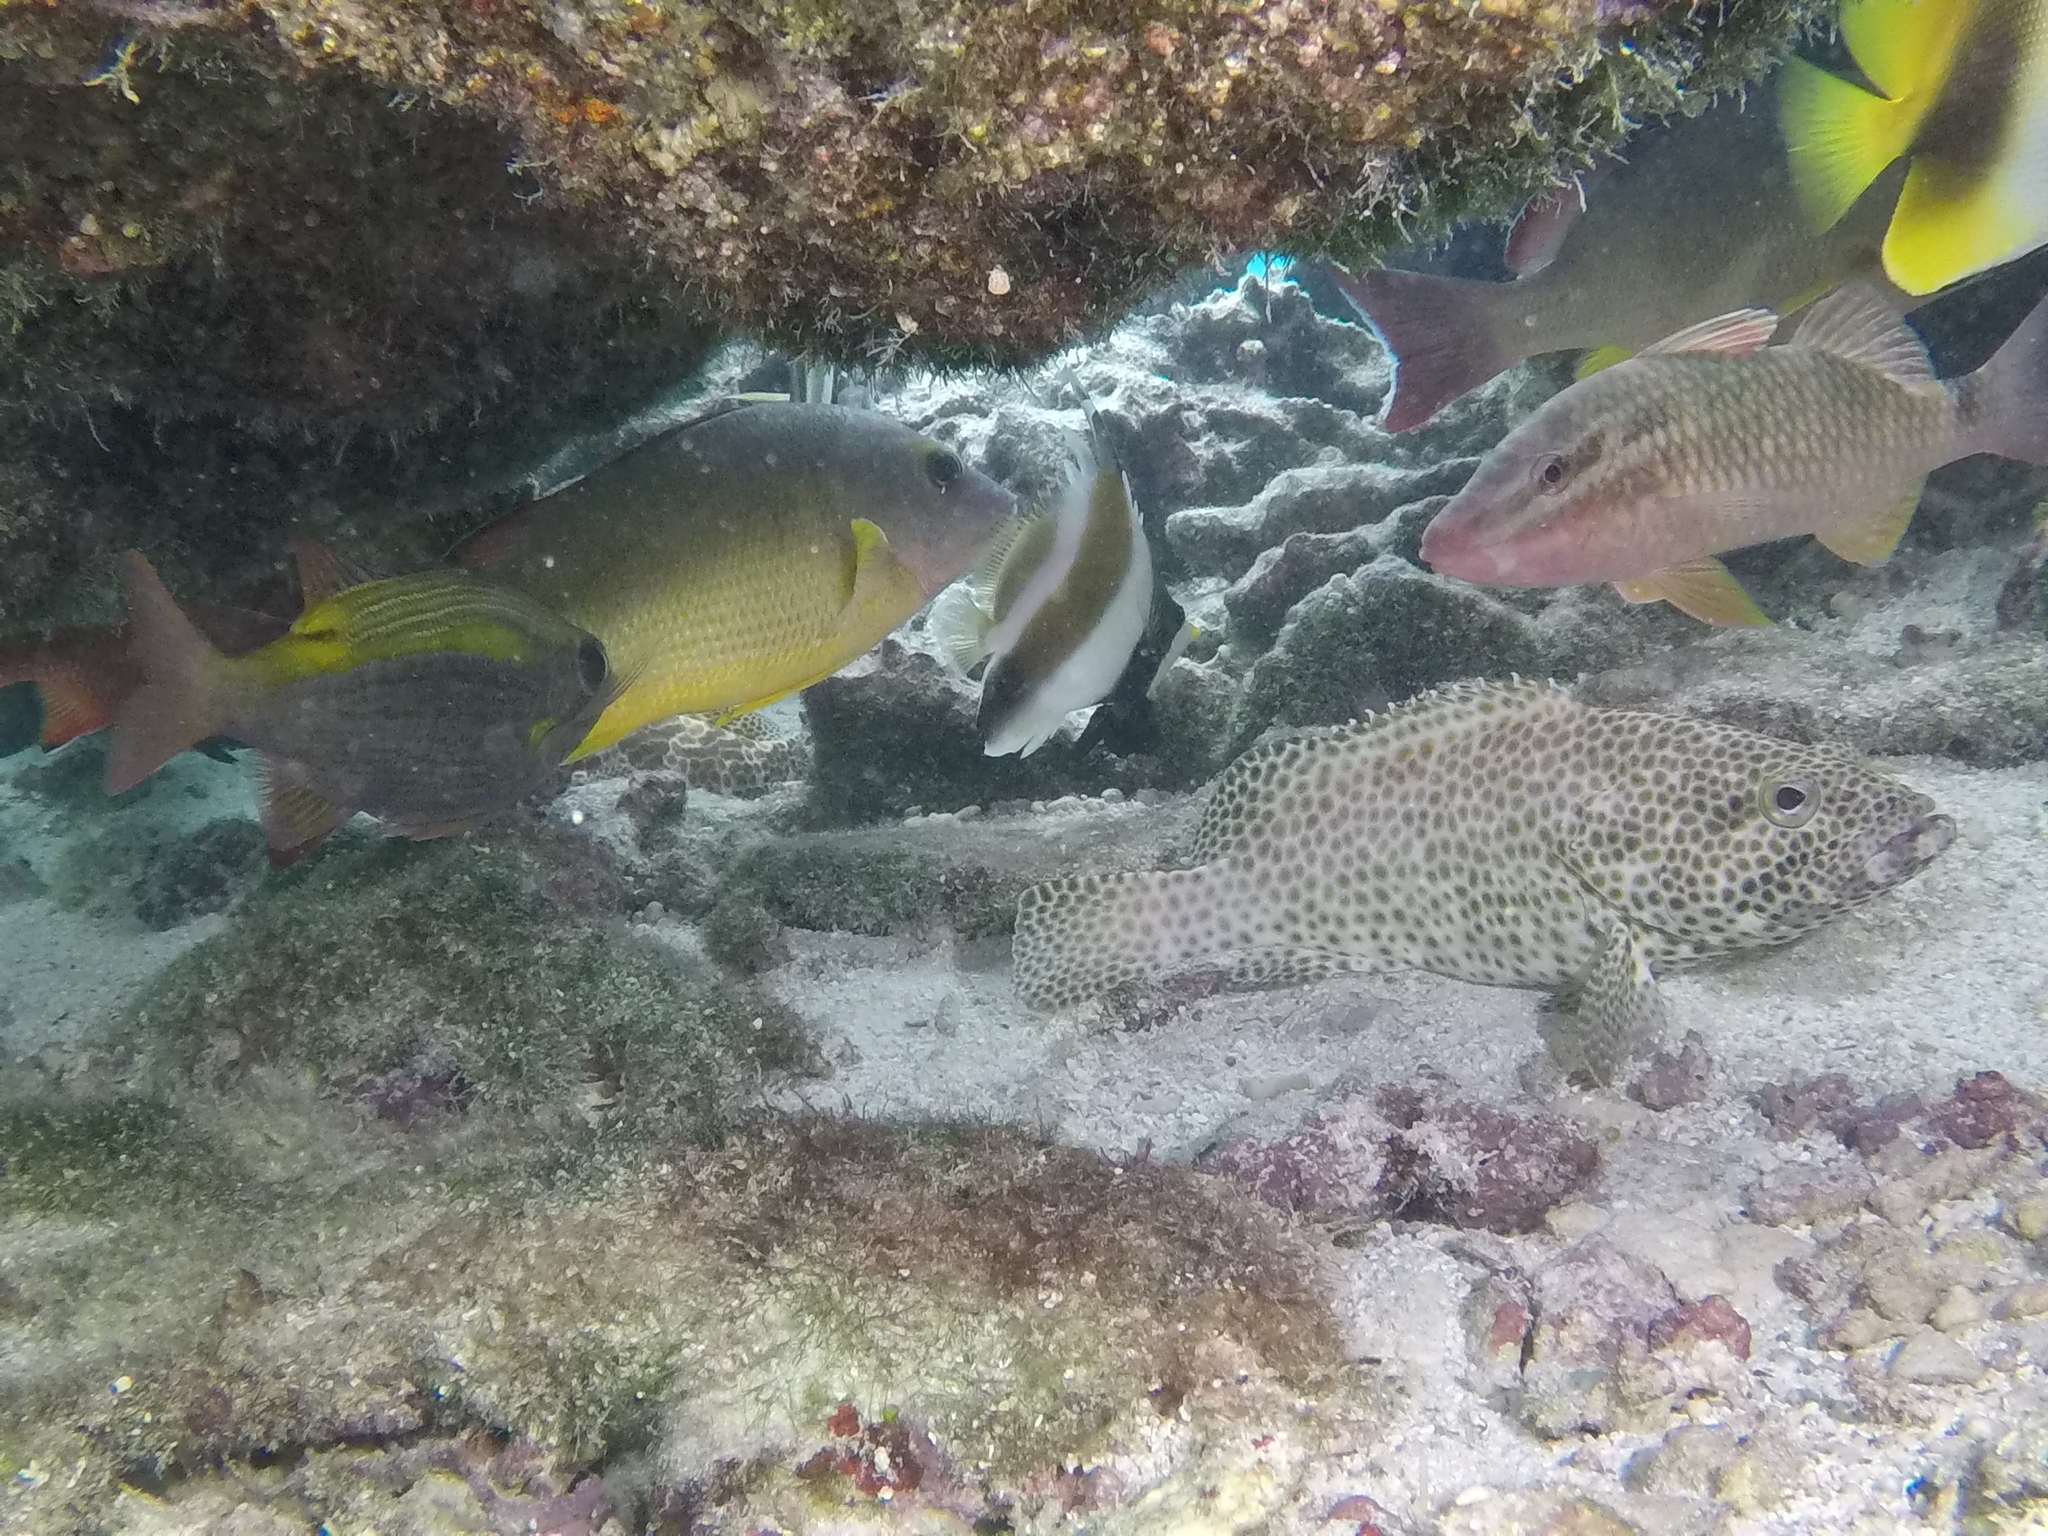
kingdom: Animalia
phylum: Chordata
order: Perciformes
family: Serranidae
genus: Epinephelus
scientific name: Epinephelus spilotoceps
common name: Foursaddle grouper
